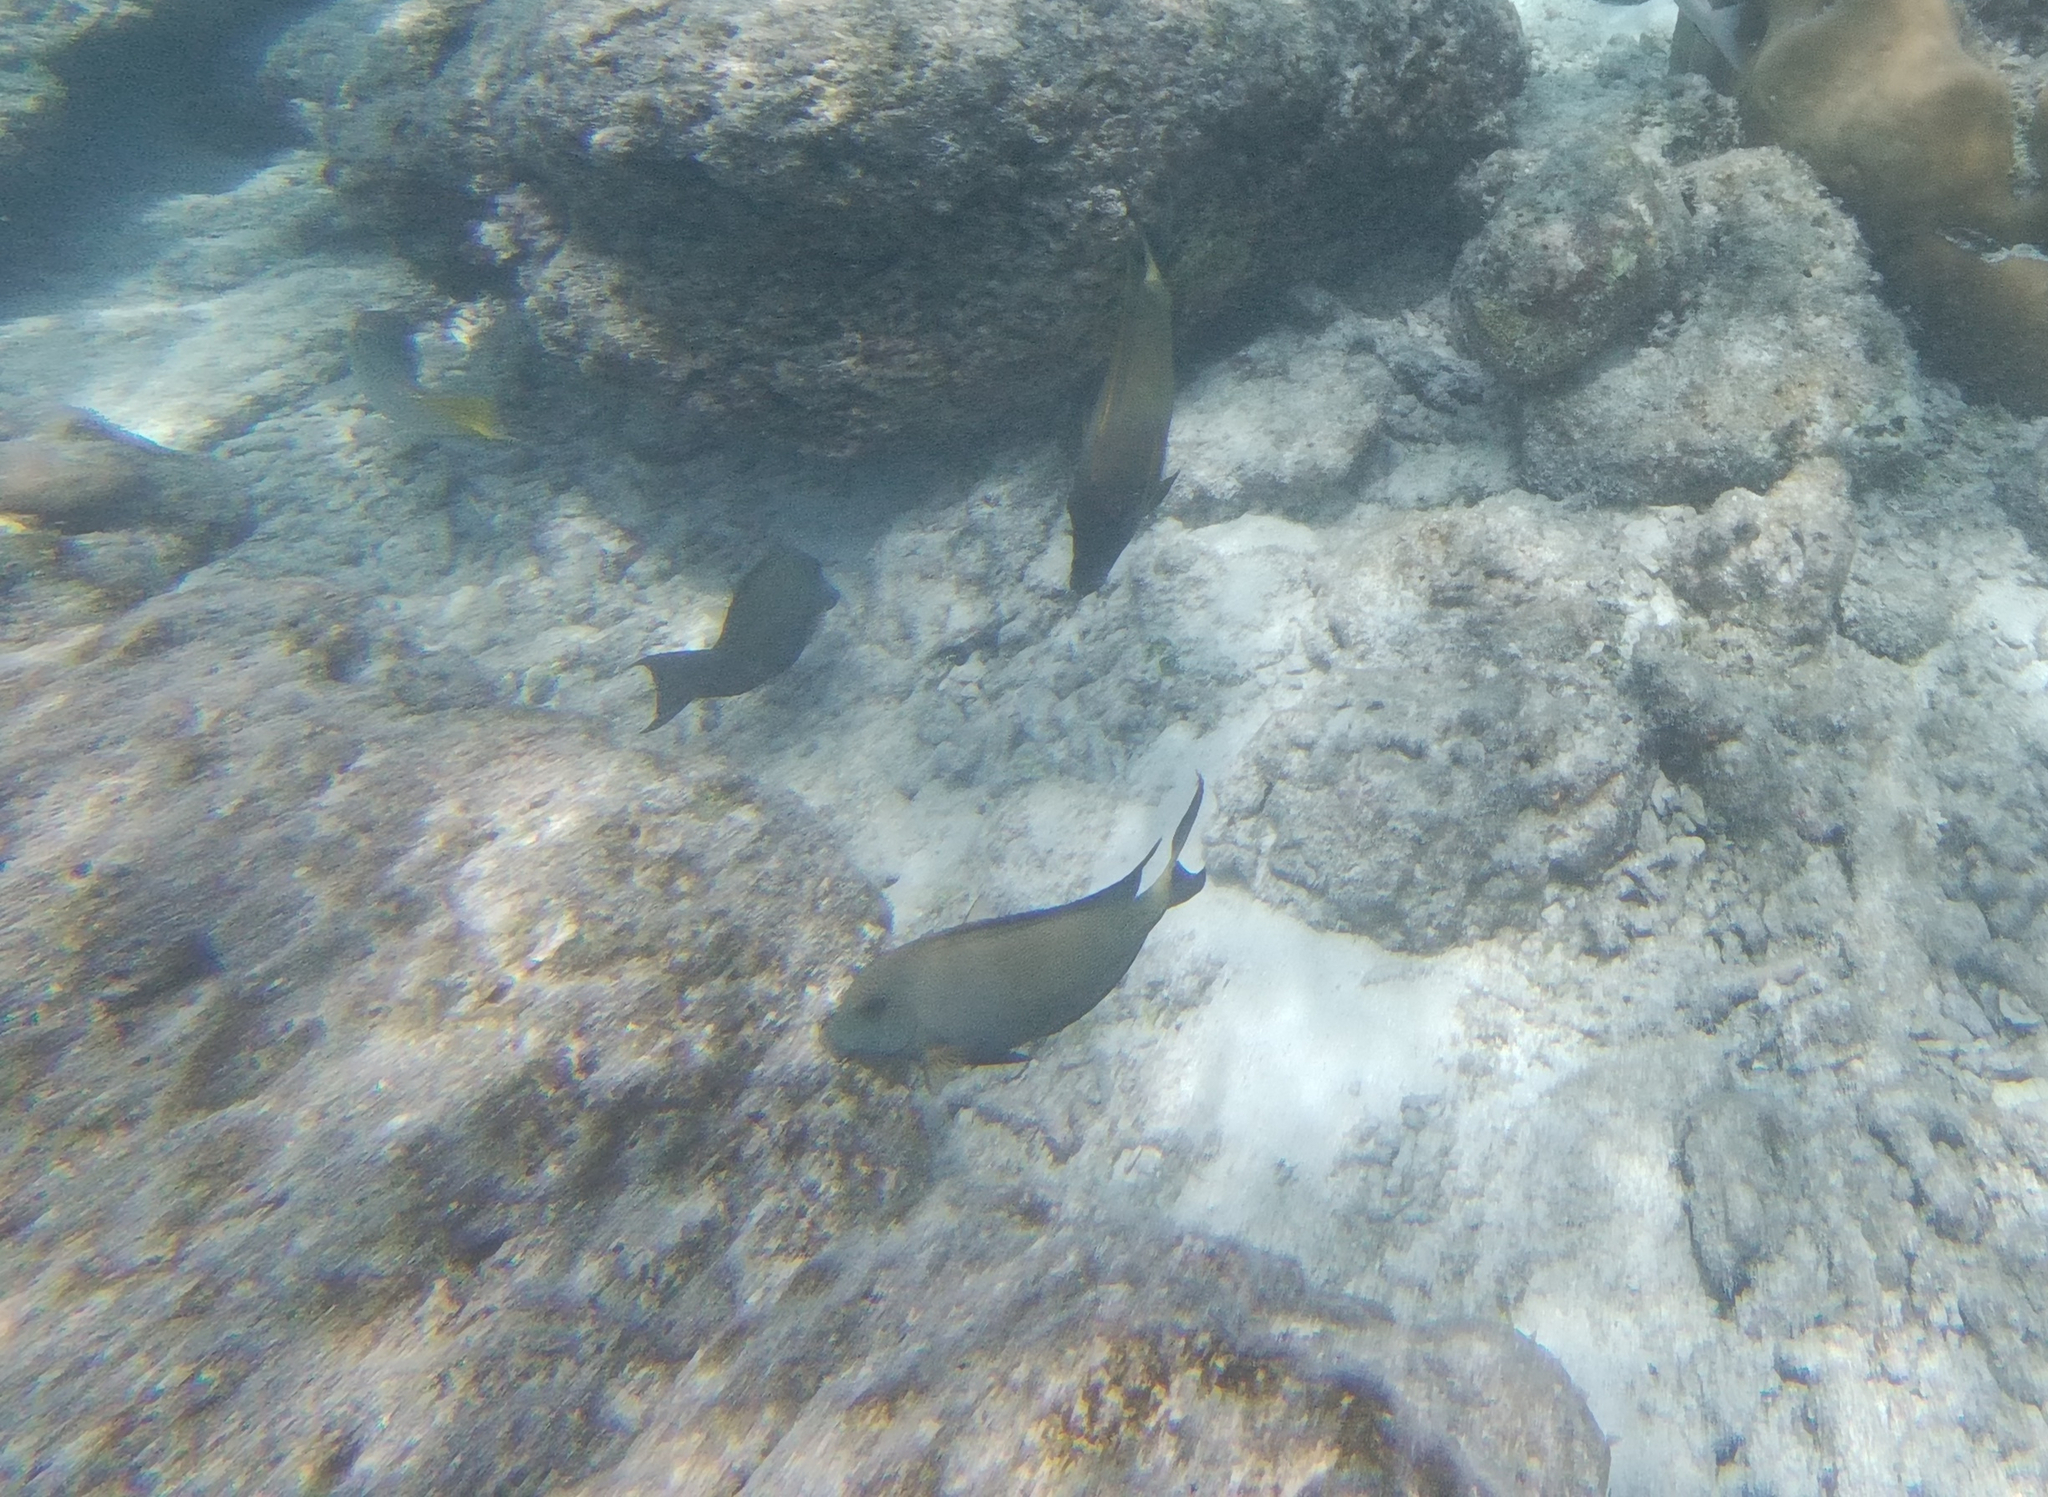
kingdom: Animalia
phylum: Chordata
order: Perciformes
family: Acanthuridae
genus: Ctenochaetus
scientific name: Ctenochaetus striatus
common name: Bristle-toothed surgeonfish
